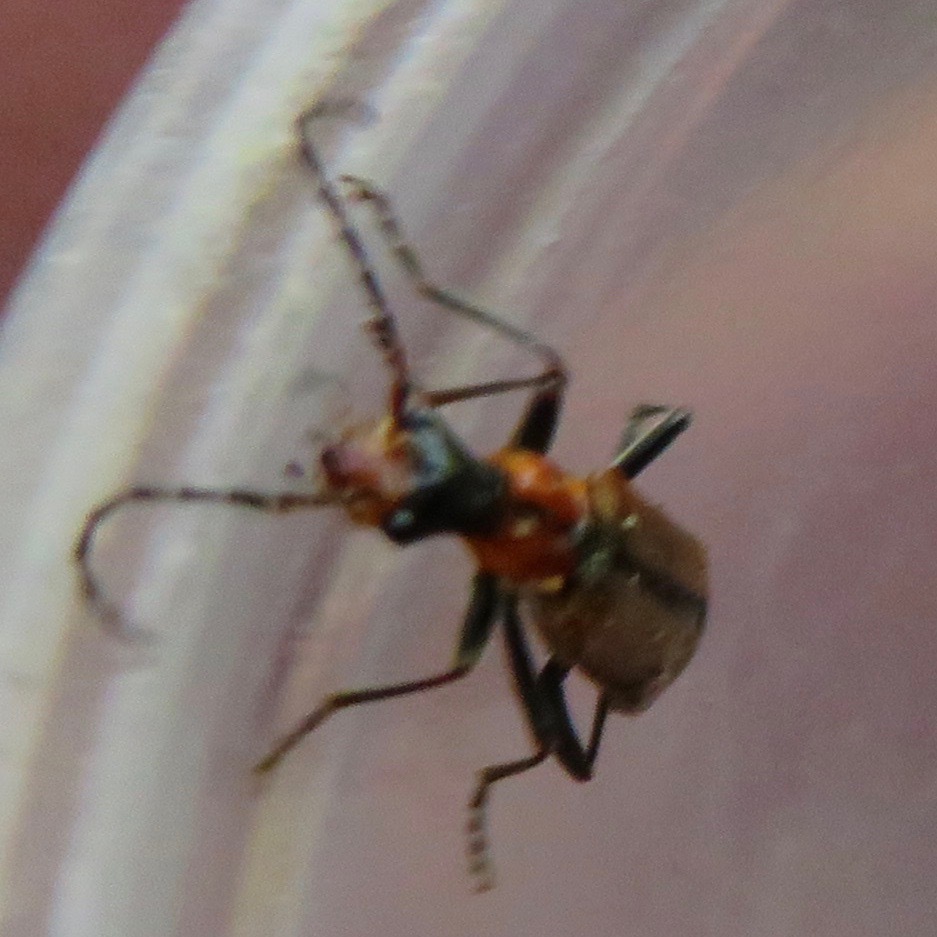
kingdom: Animalia
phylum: Arthropoda
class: Insecta
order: Coleoptera
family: Cantharidae
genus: Dichelotarsus
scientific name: Dichelotarsus cavicollis
